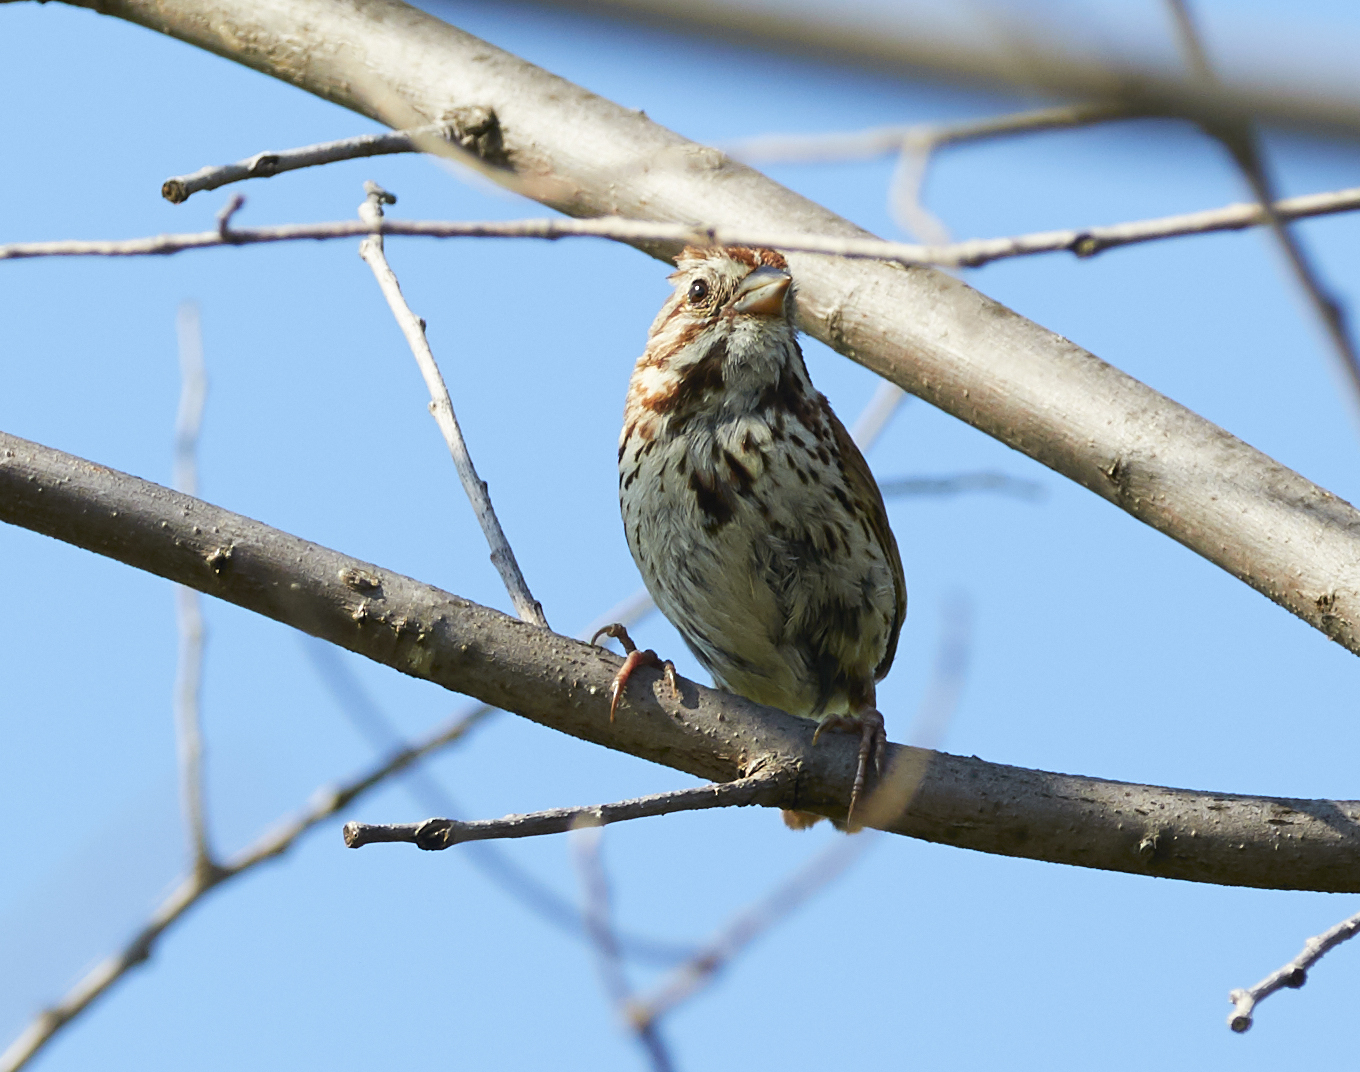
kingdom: Animalia
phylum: Chordata
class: Aves
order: Passeriformes
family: Passerellidae
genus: Melospiza
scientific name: Melospiza melodia
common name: Song sparrow
